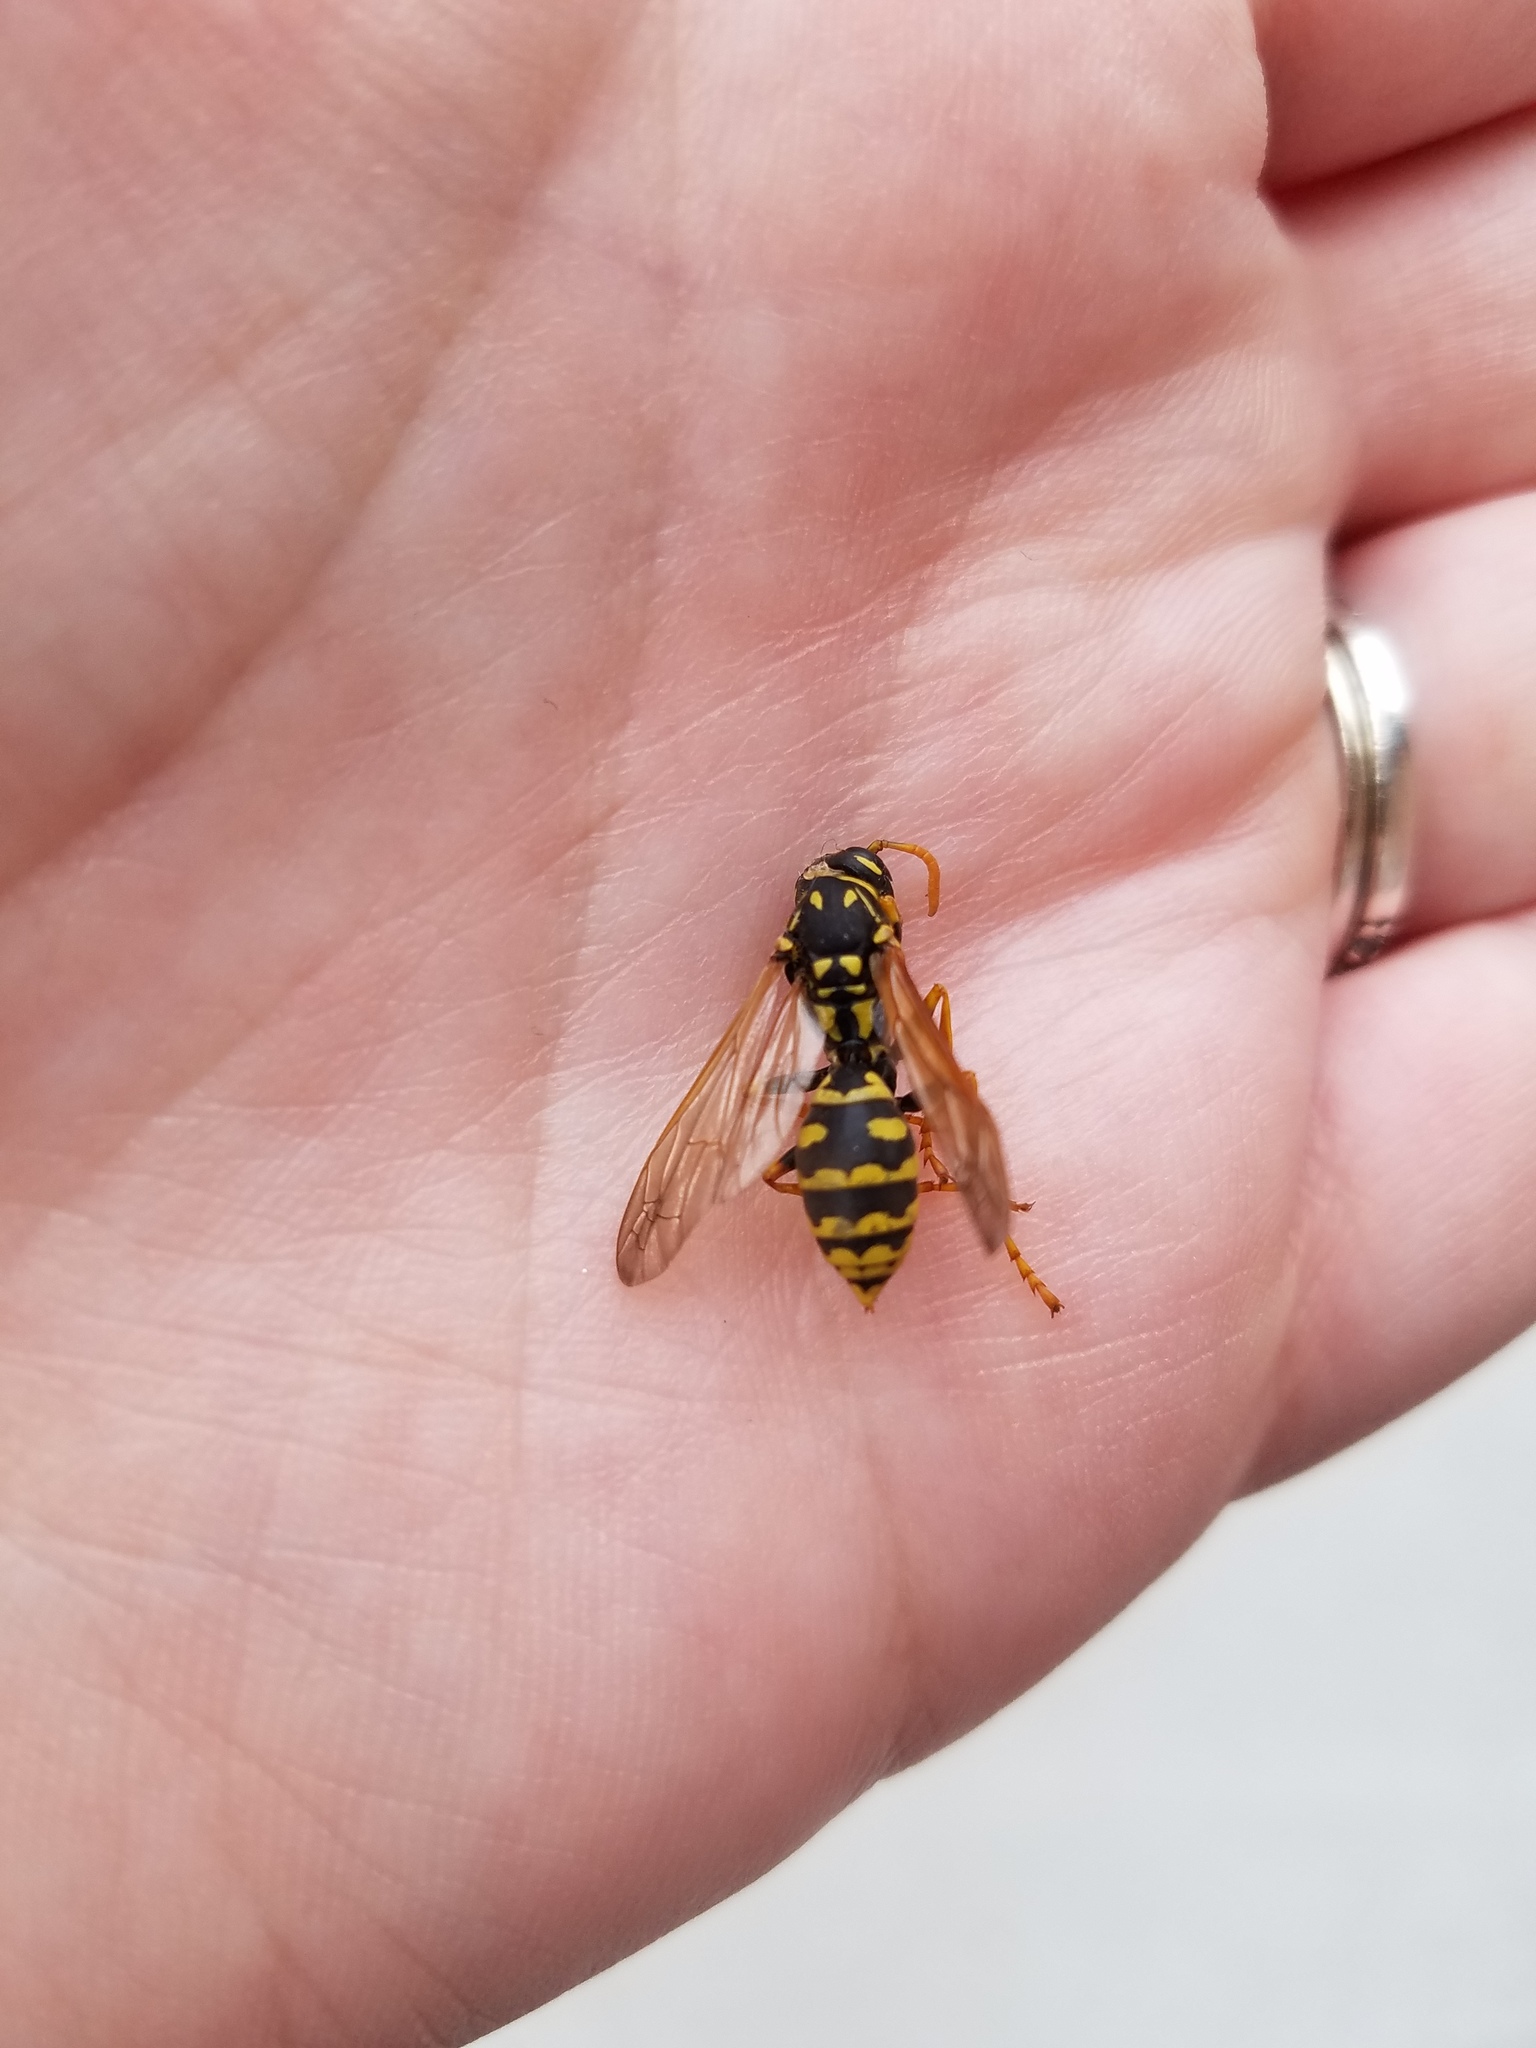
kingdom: Animalia
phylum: Arthropoda
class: Insecta
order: Hymenoptera
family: Eumenidae
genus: Polistes
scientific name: Polistes dominula
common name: Paper wasp
